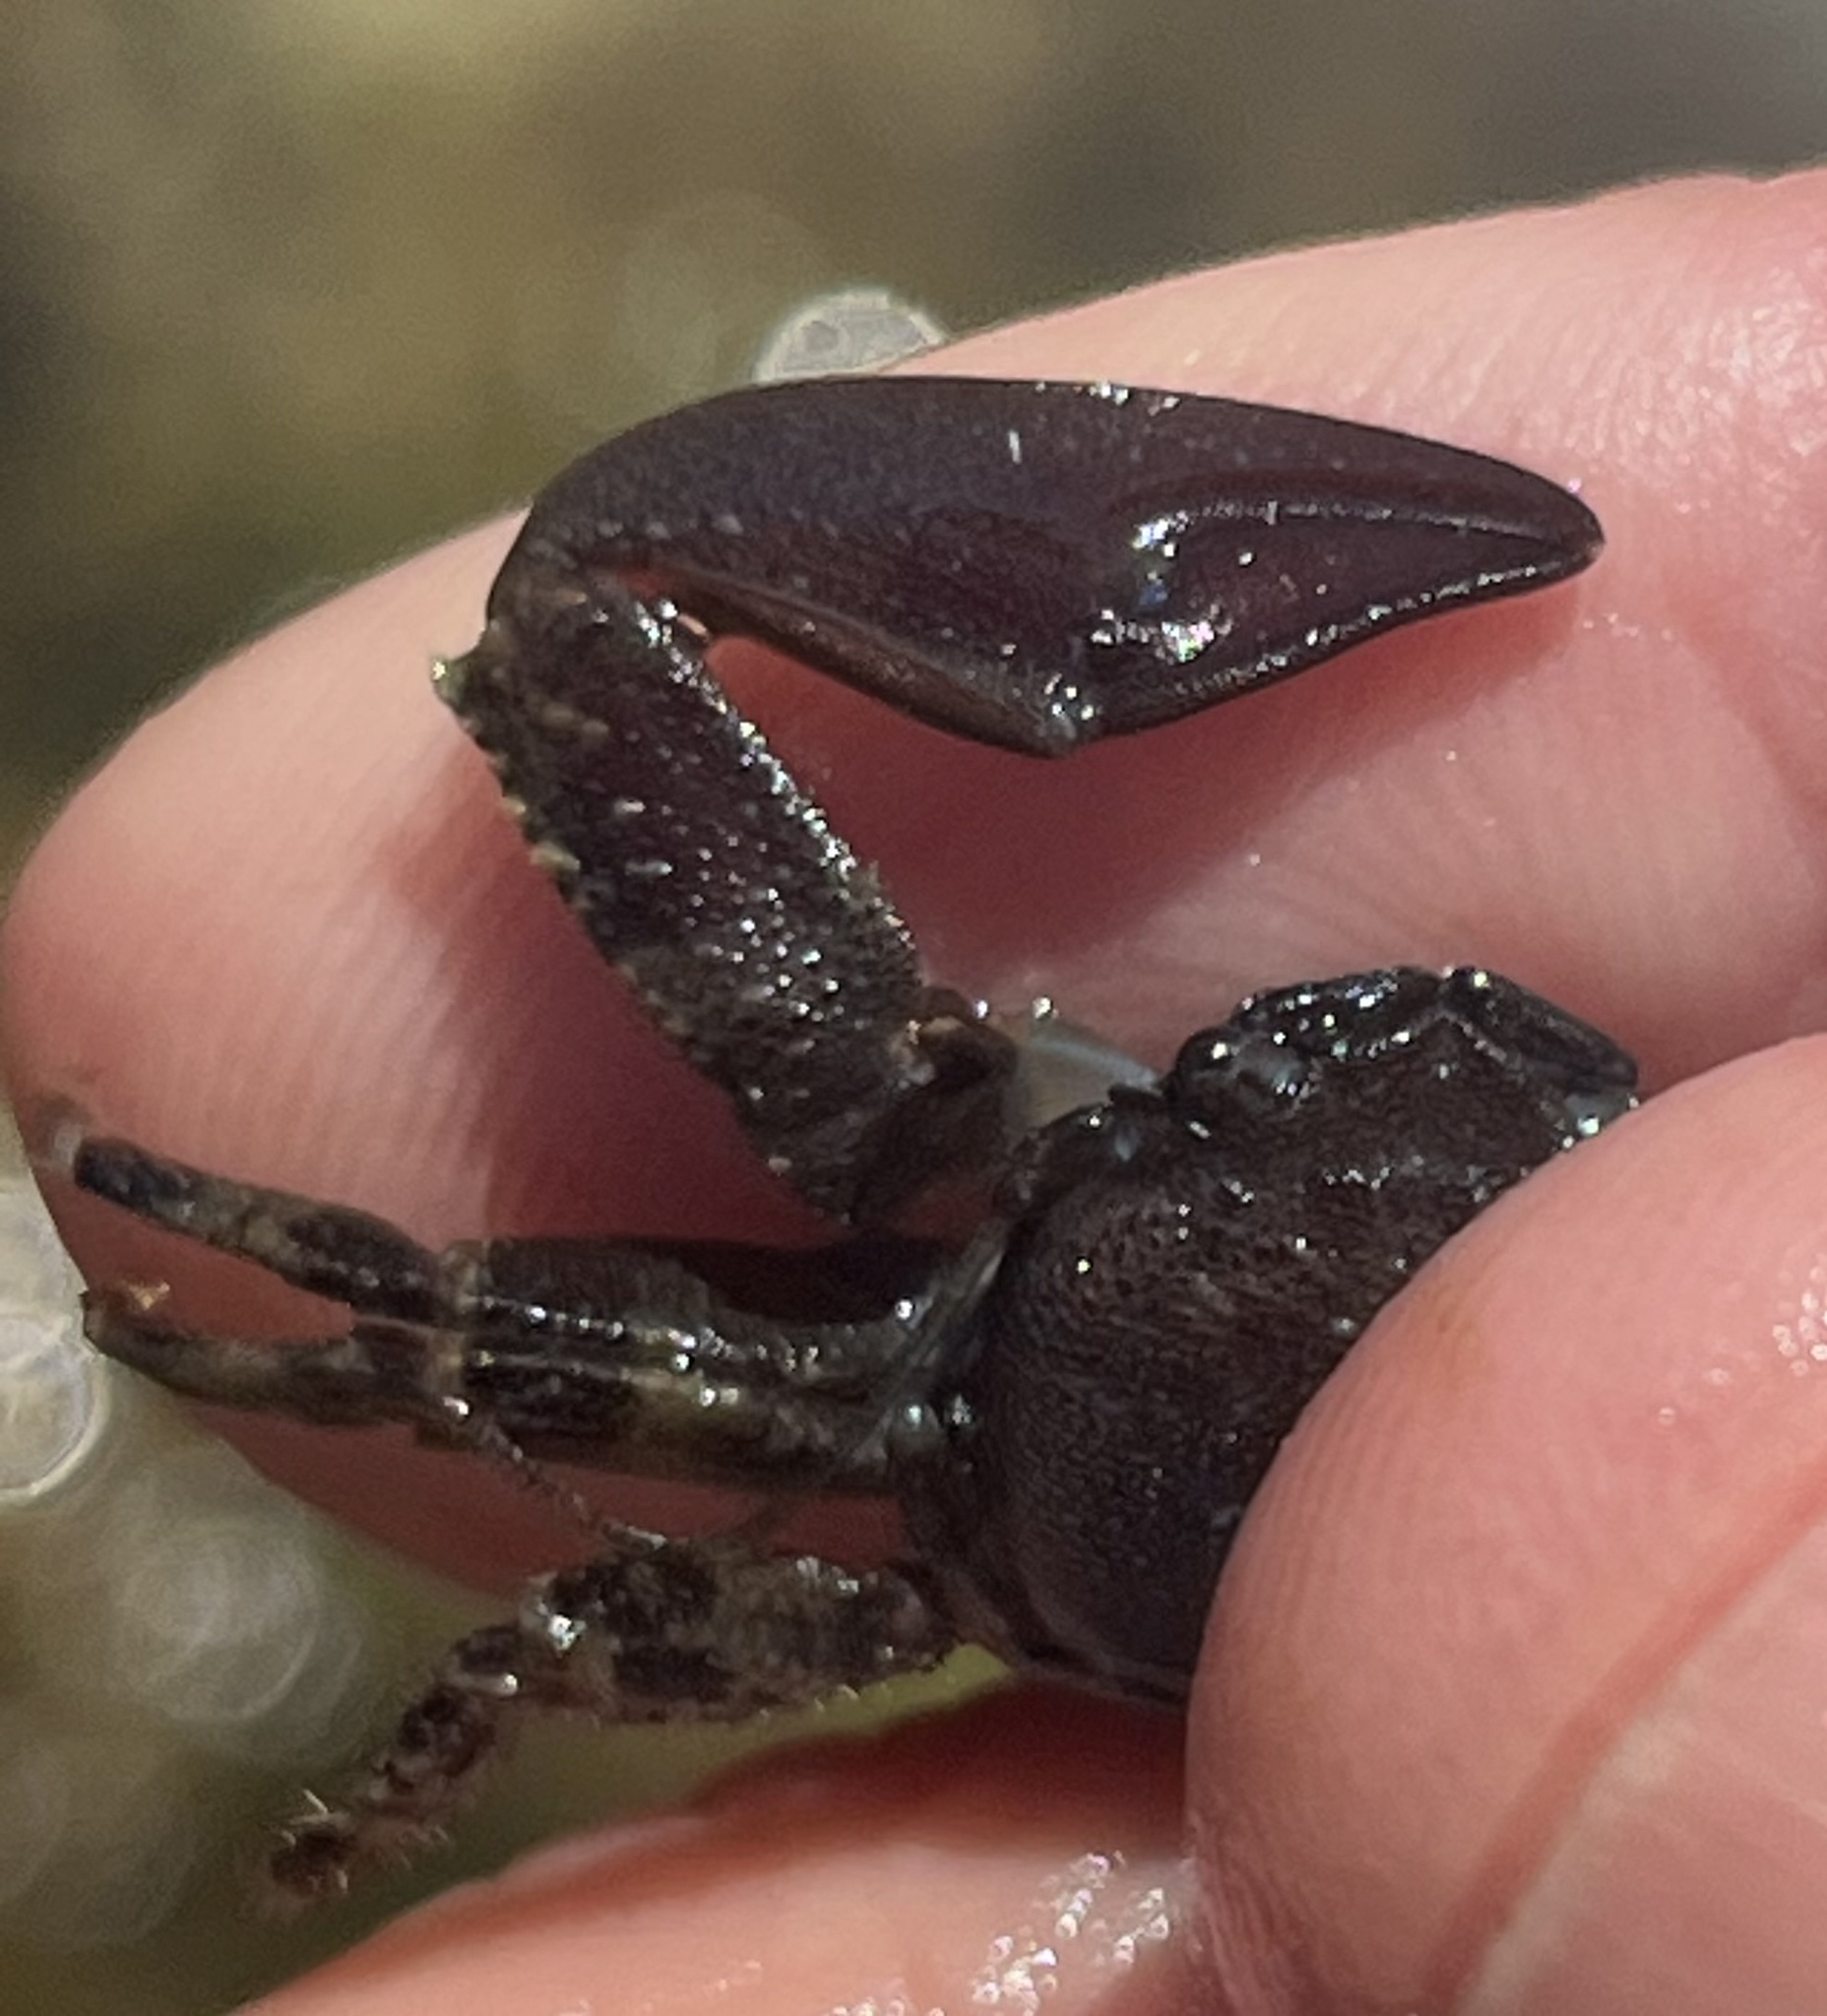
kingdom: Animalia
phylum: Arthropoda
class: Malacostraca
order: Decapoda
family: Porcellanidae
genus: Petrolisthes
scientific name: Petrolisthes eriomerus
